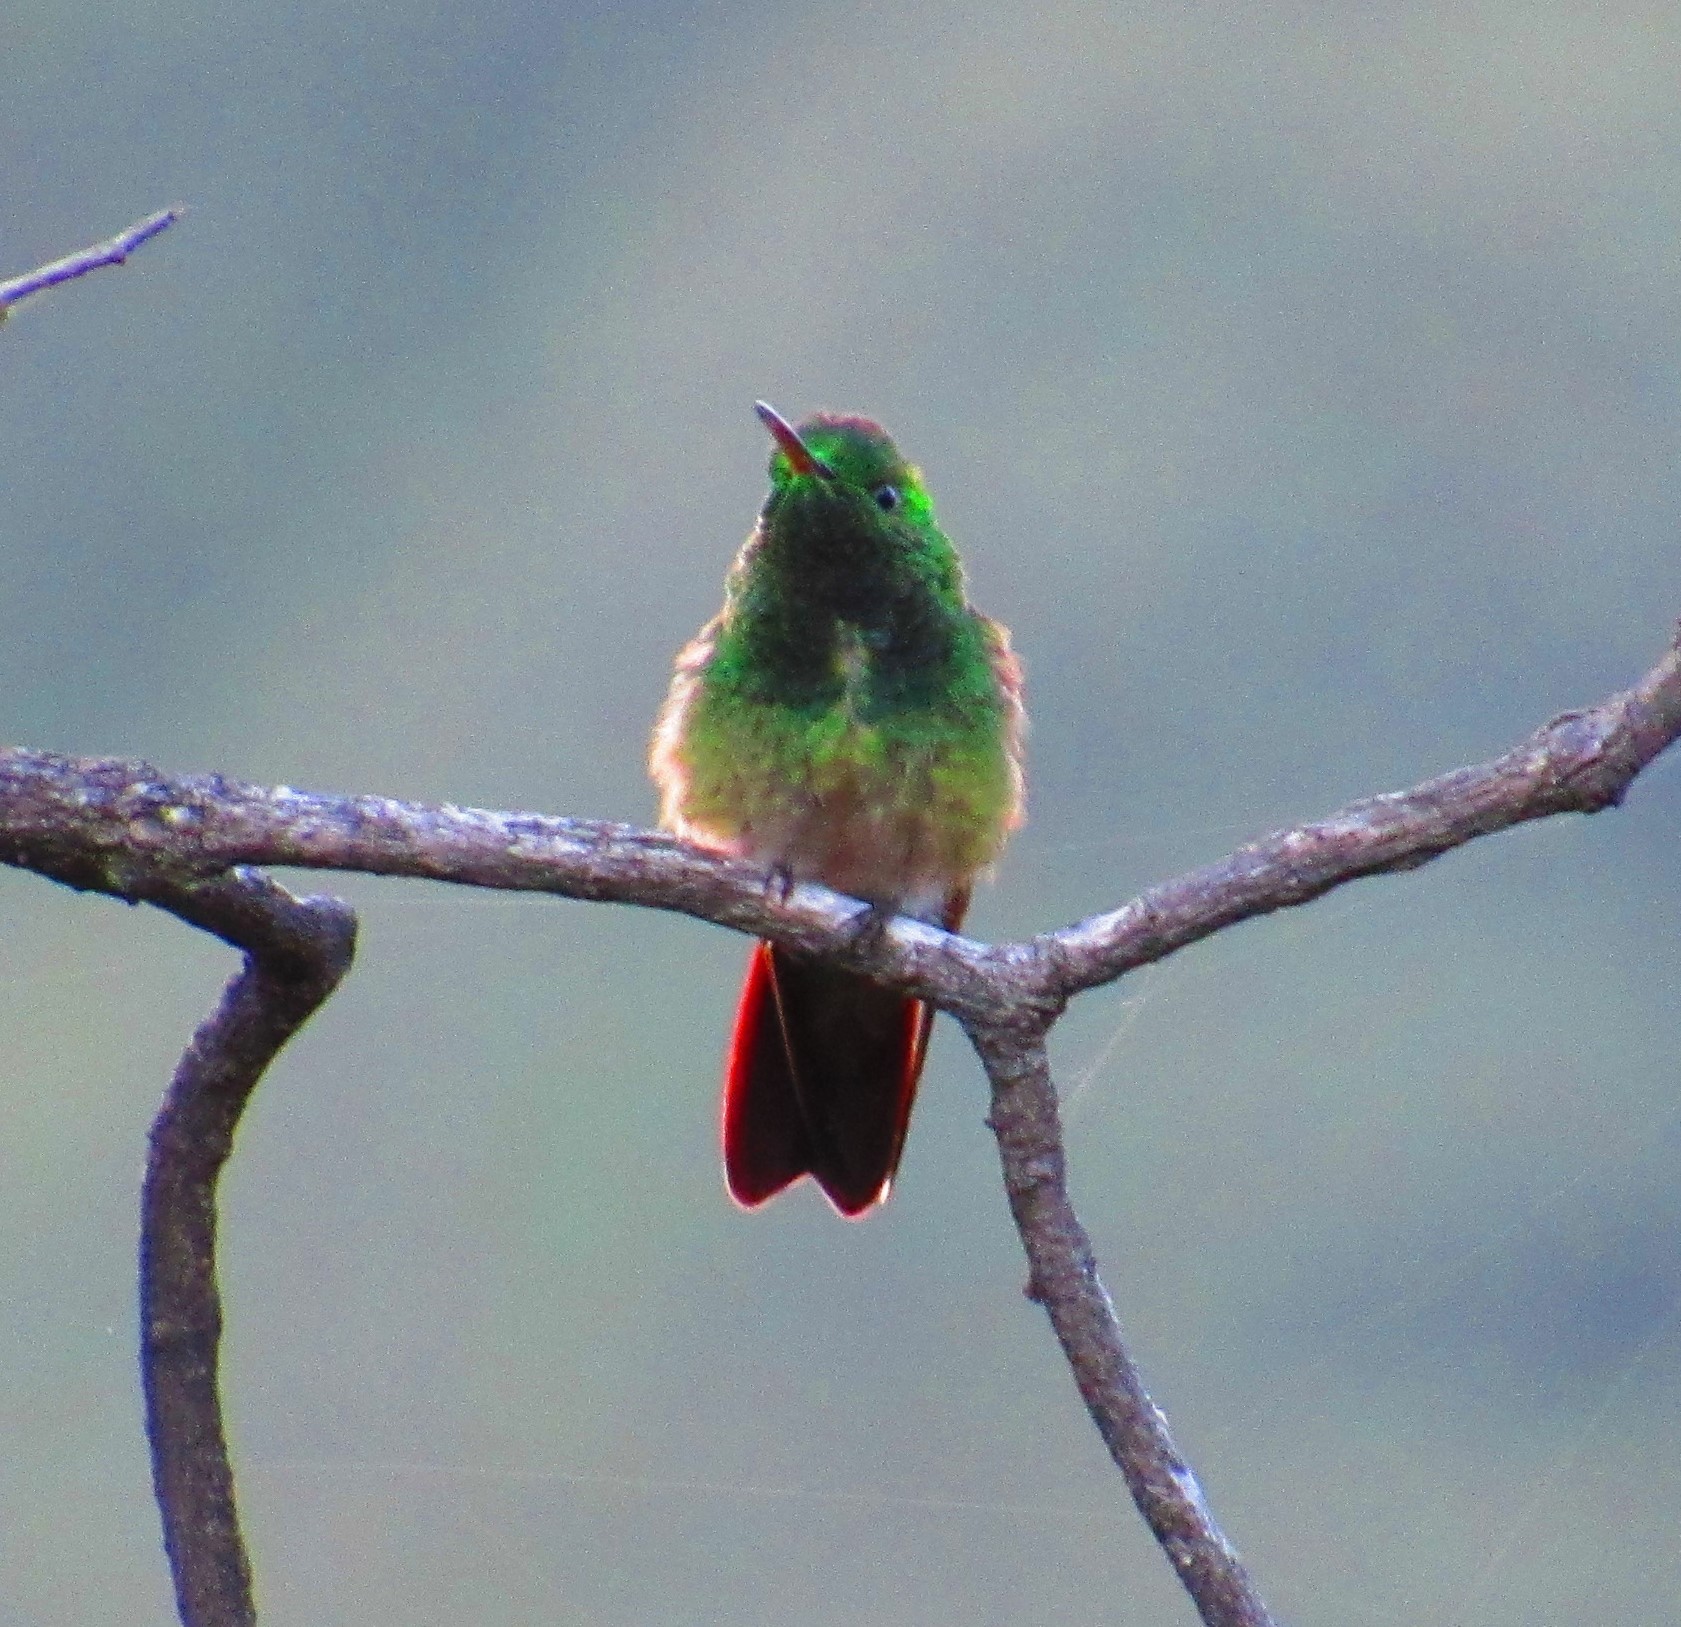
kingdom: Animalia
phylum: Chordata
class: Aves
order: Apodiformes
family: Trochilidae
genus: Saucerottia
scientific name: Saucerottia beryllina
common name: Berylline hummingbird
